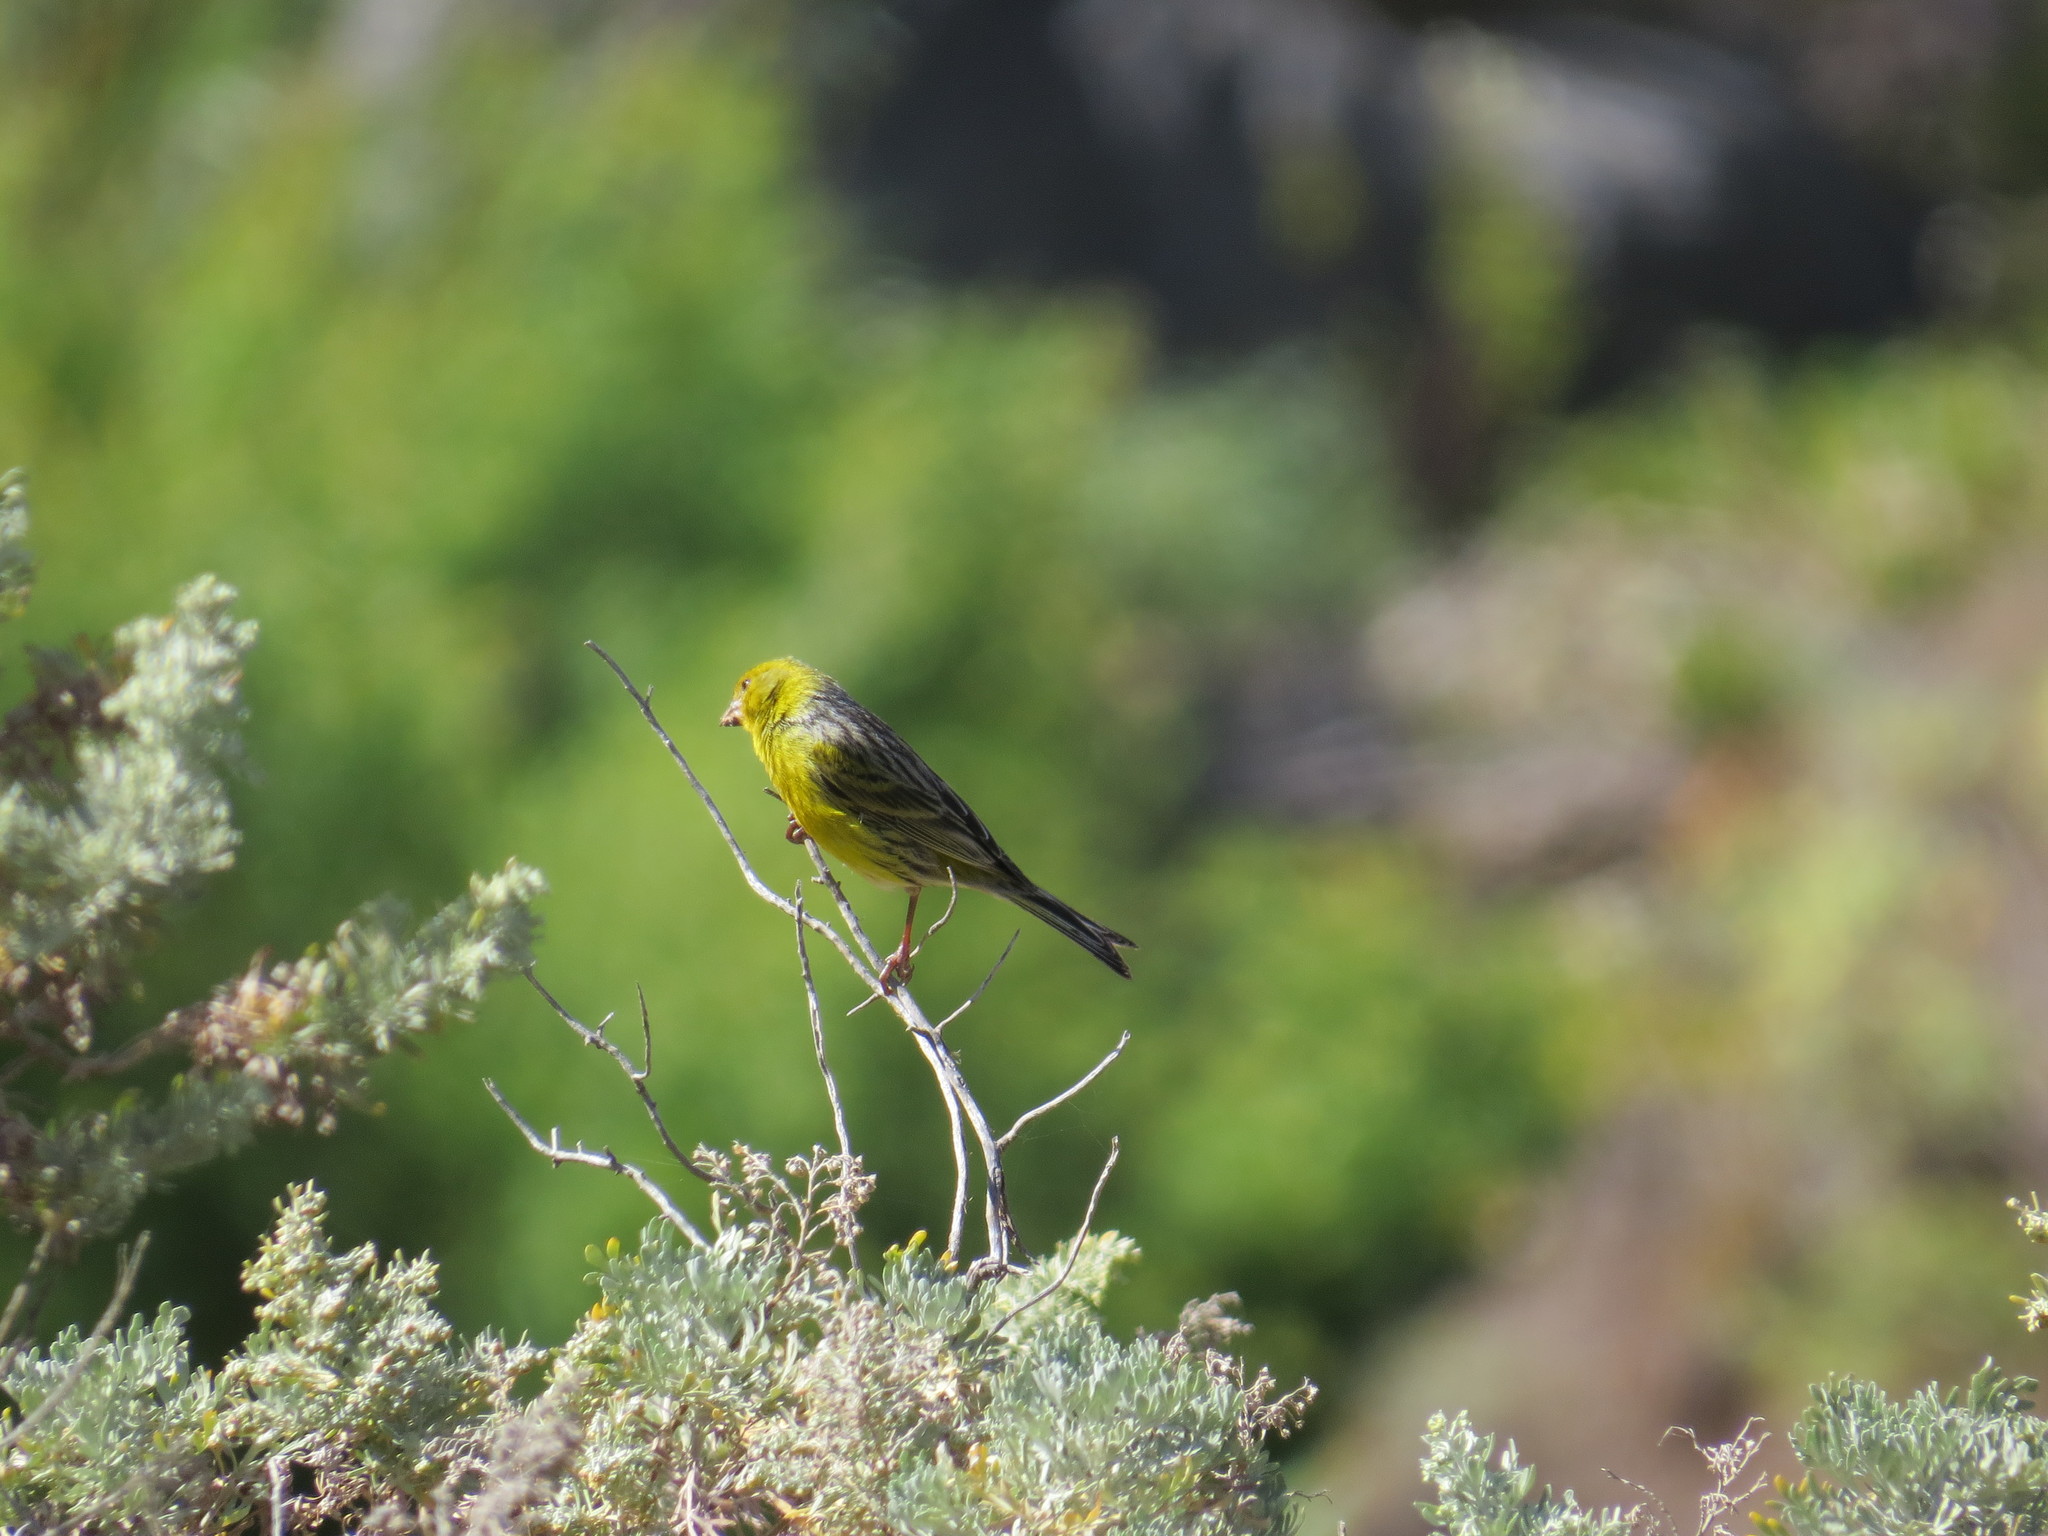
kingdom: Animalia
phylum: Chordata
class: Aves
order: Passeriformes
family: Fringillidae
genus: Serinus
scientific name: Serinus canaria
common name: Atlantic canary
